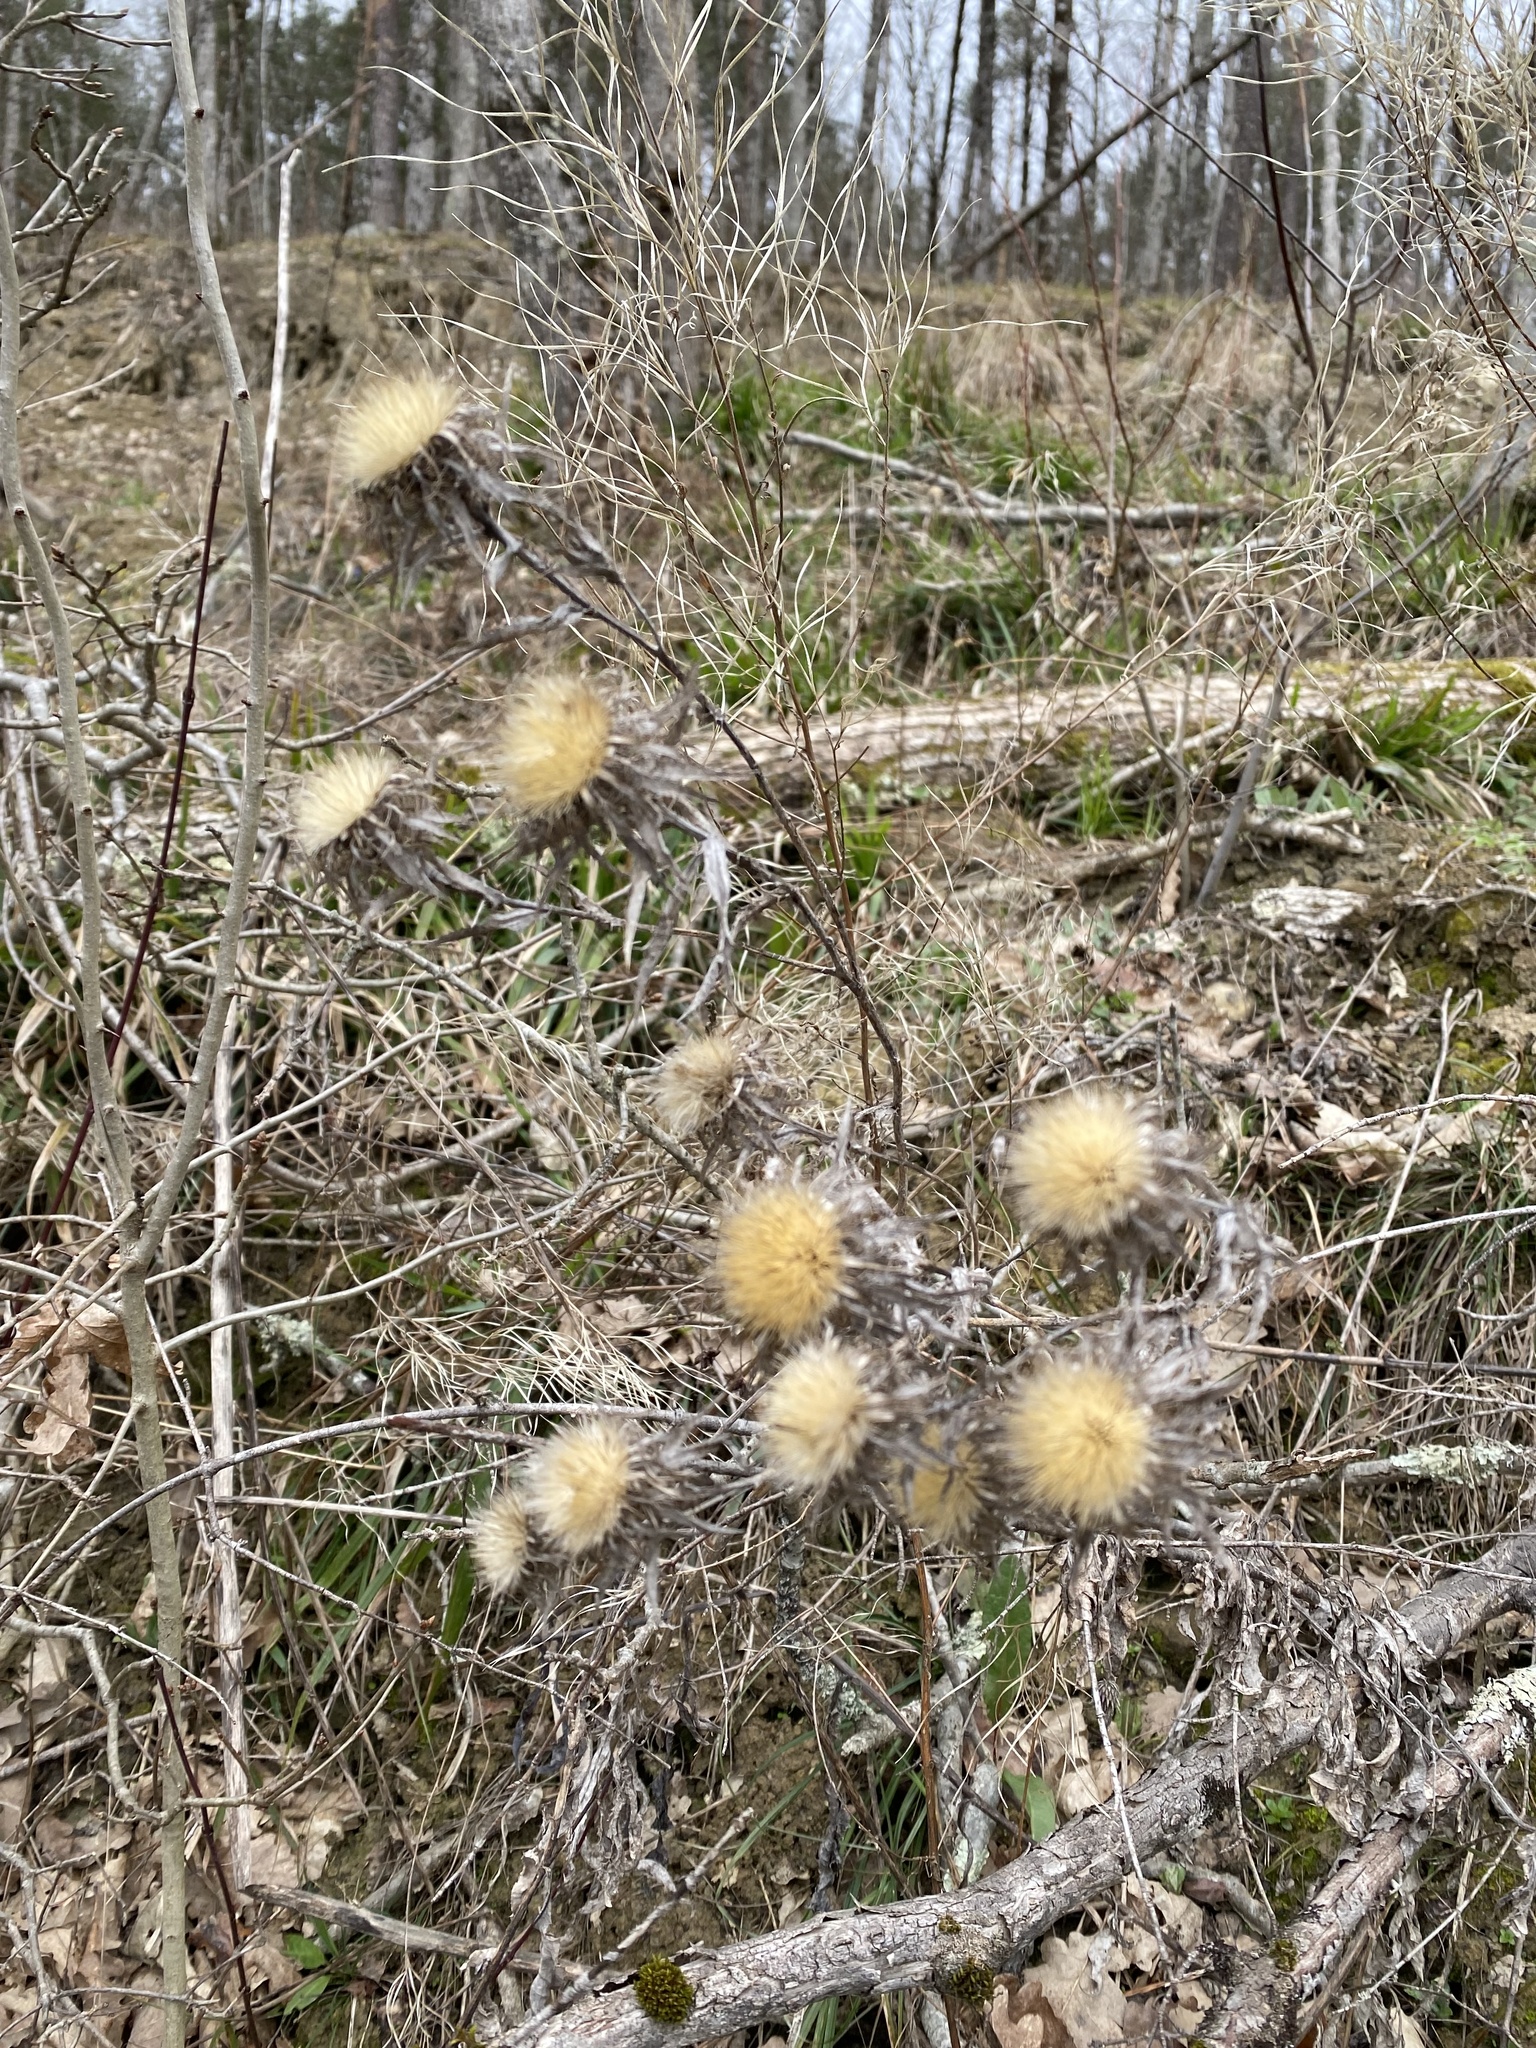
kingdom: Plantae
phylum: Tracheophyta
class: Magnoliopsida
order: Asterales
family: Asteraceae
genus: Carlina
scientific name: Carlina vulgaris
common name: Carline thistle
